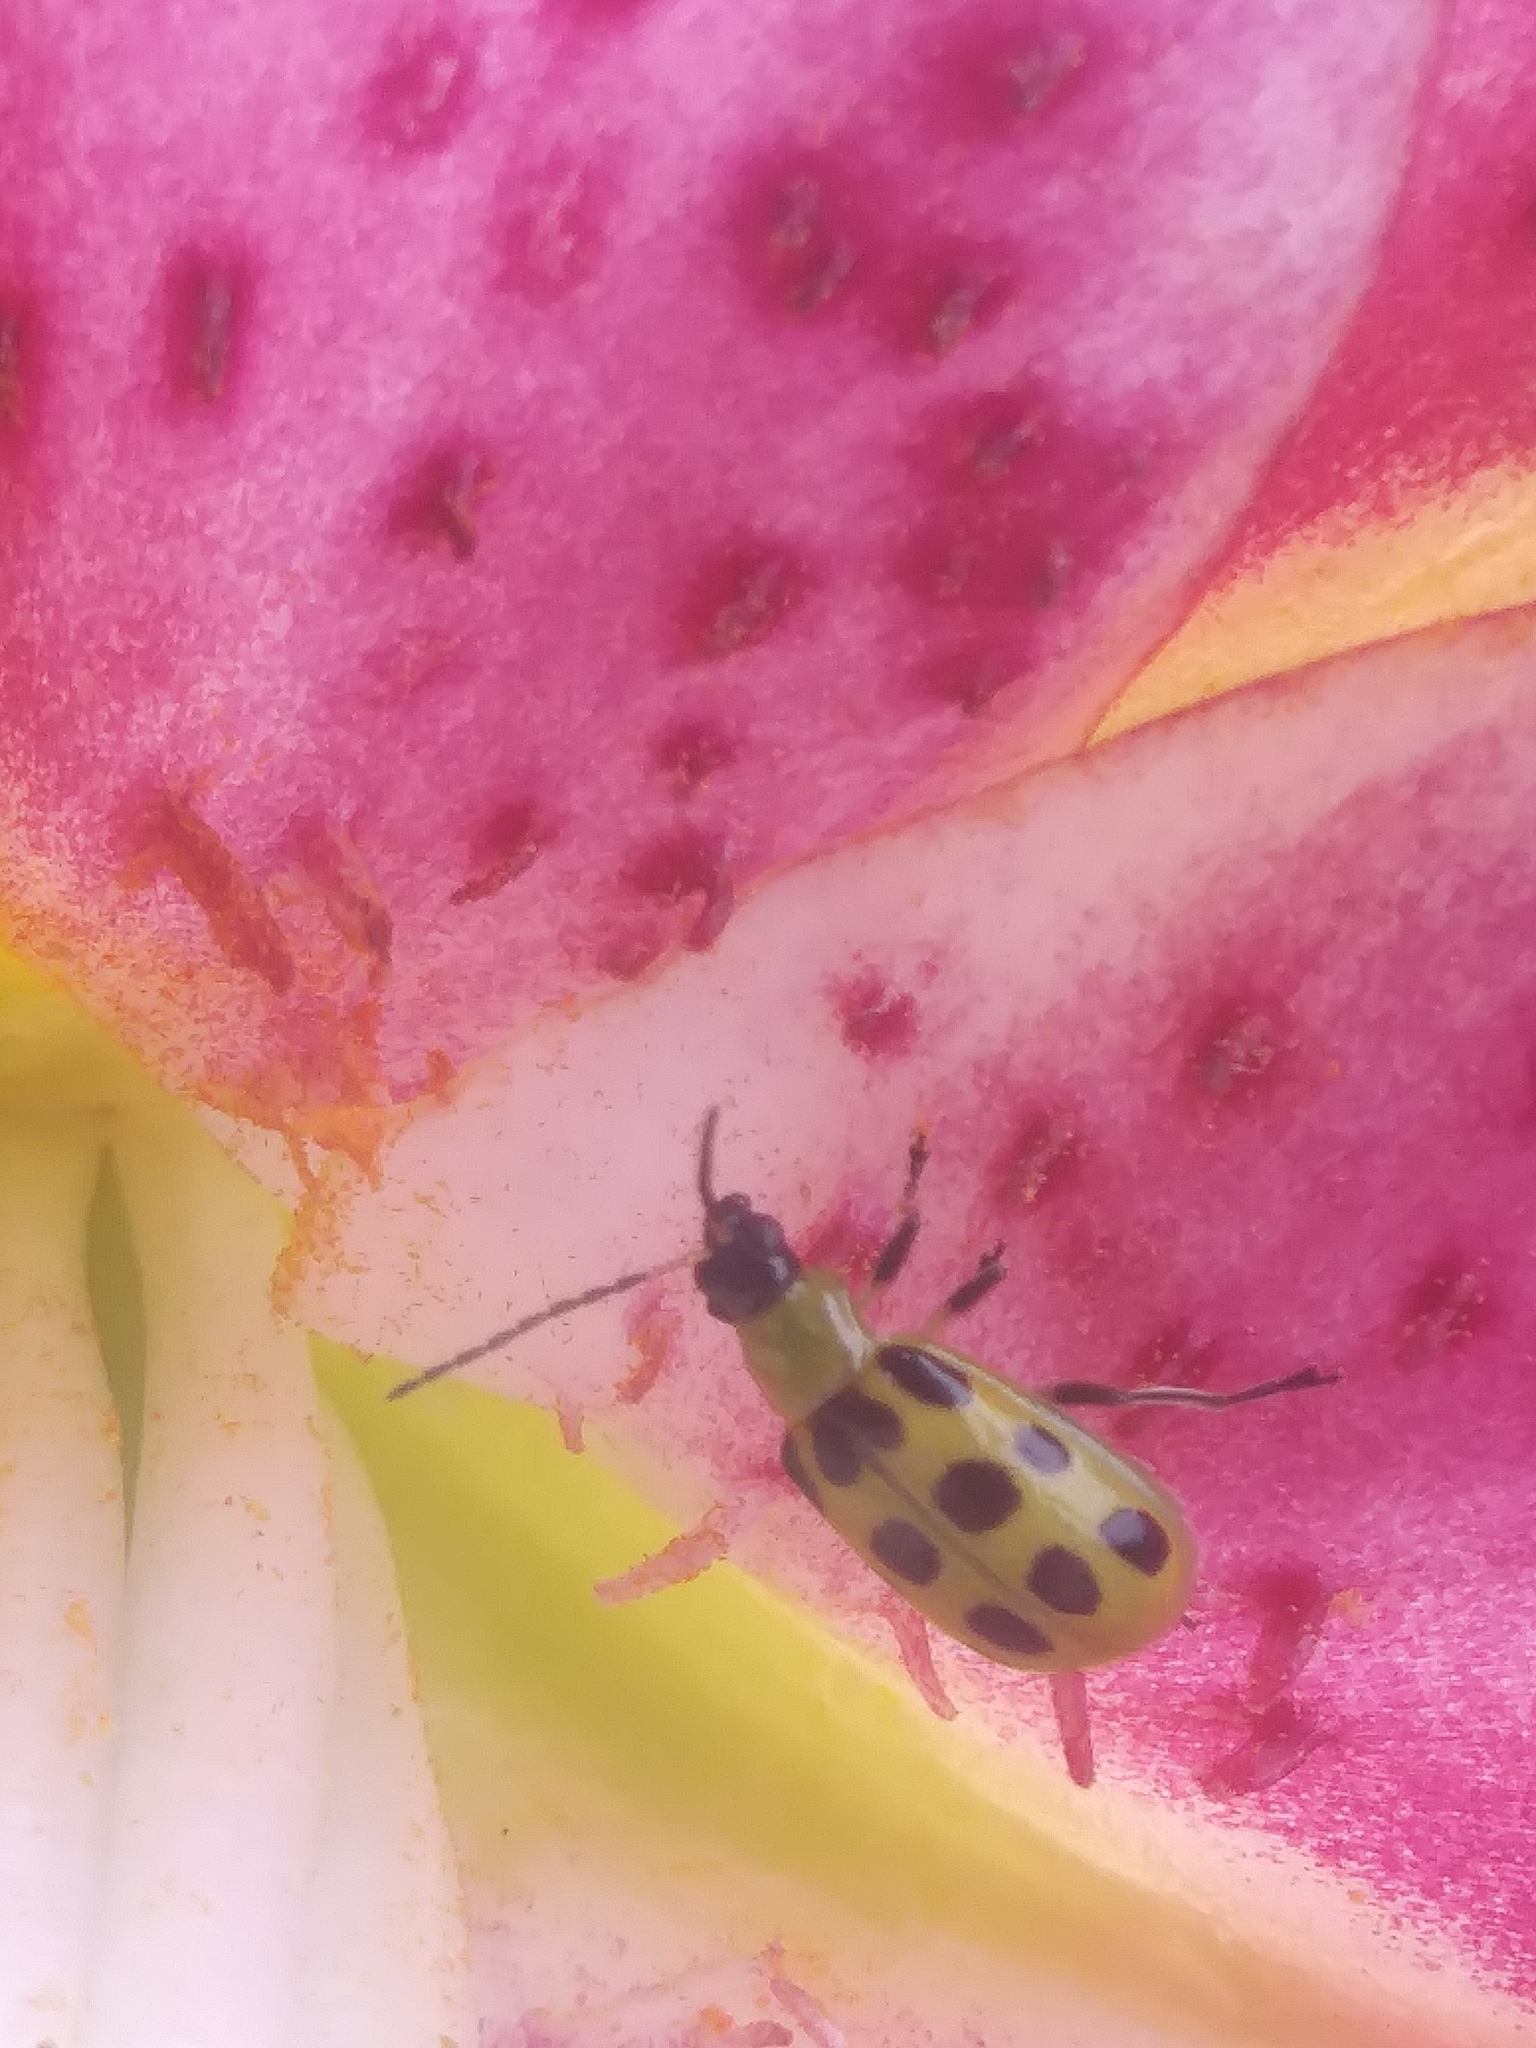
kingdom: Animalia
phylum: Arthropoda
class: Insecta
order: Coleoptera
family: Chrysomelidae
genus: Diabrotica
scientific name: Diabrotica undecimpunctata
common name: Spotted cucumber beetle
